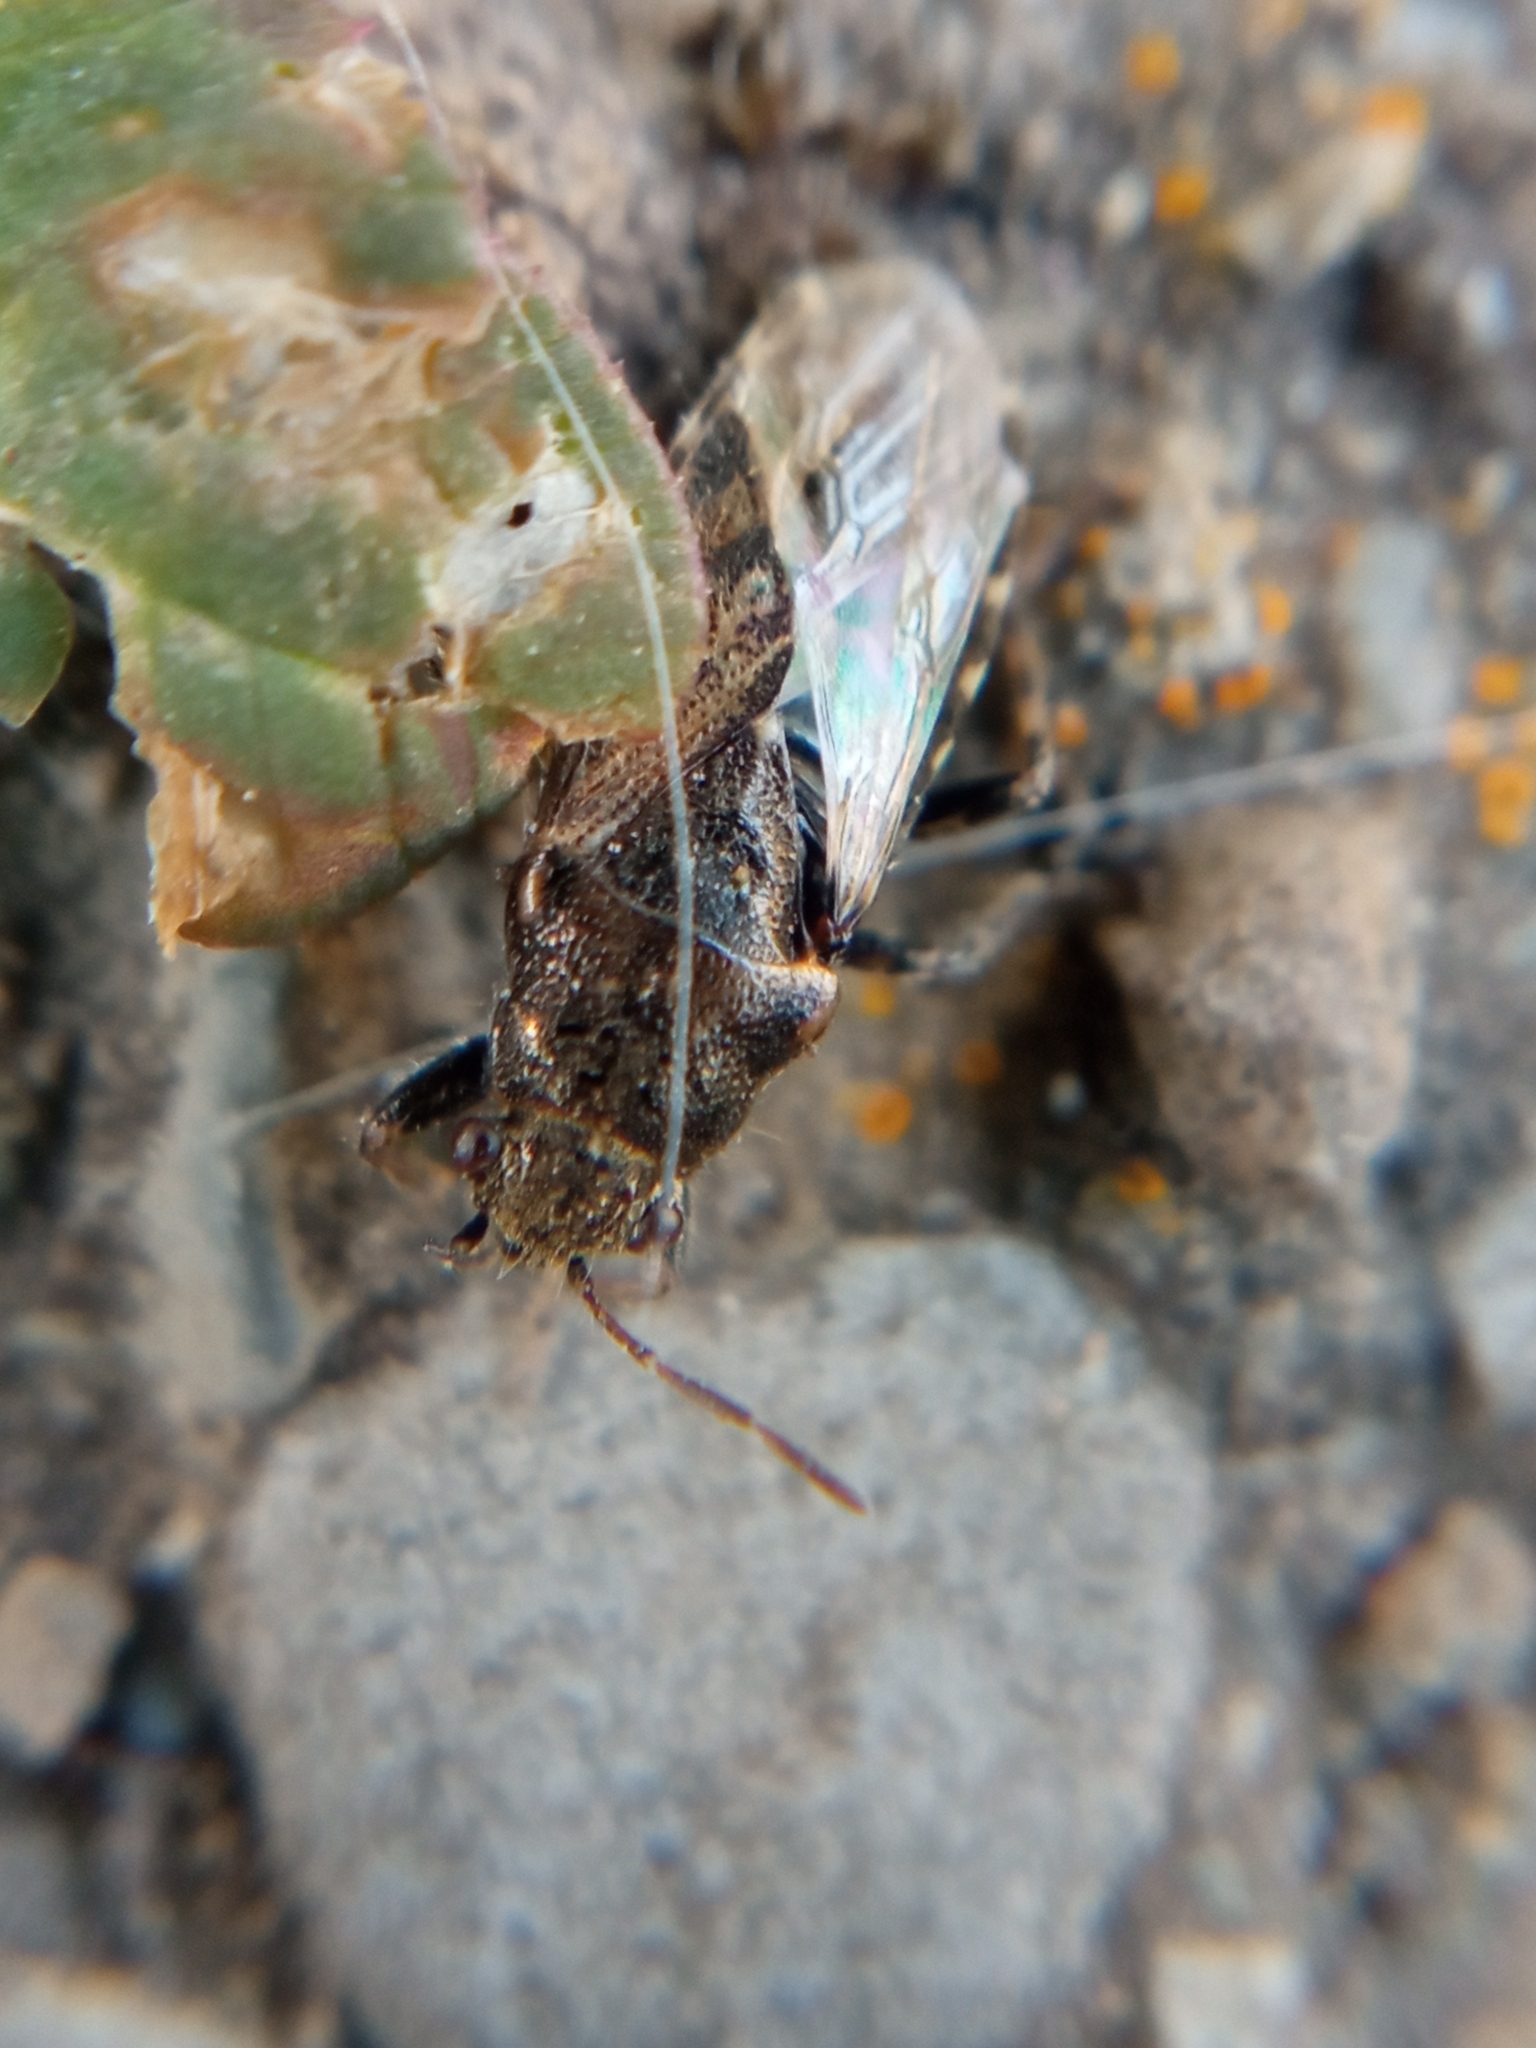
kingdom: Animalia
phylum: Arthropoda
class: Insecta
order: Hemiptera
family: Heterogastridae
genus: Heterogaster
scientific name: Heterogaster urticae
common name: Seed bug
